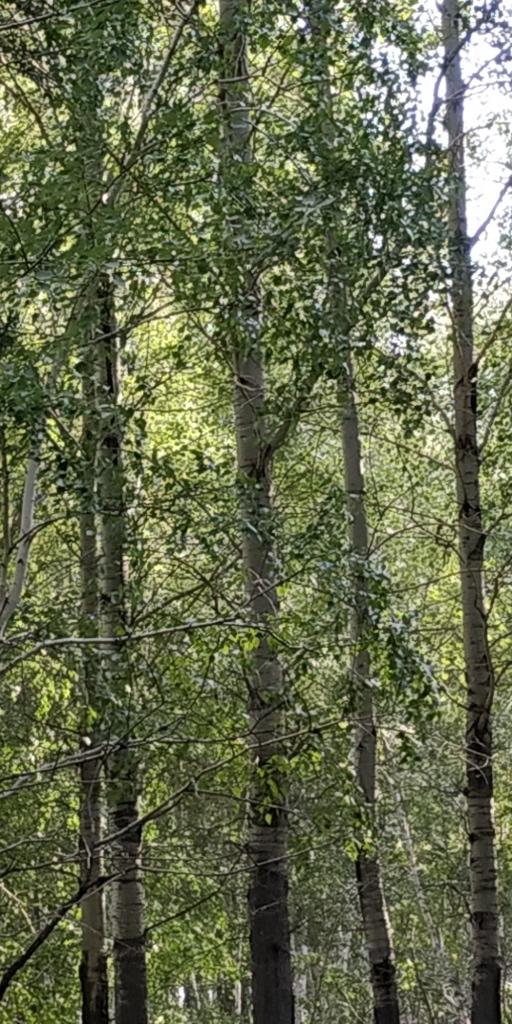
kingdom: Plantae
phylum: Tracheophyta
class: Magnoliopsida
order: Malpighiales
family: Salicaceae
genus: Populus
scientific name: Populus tremula
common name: European aspen
